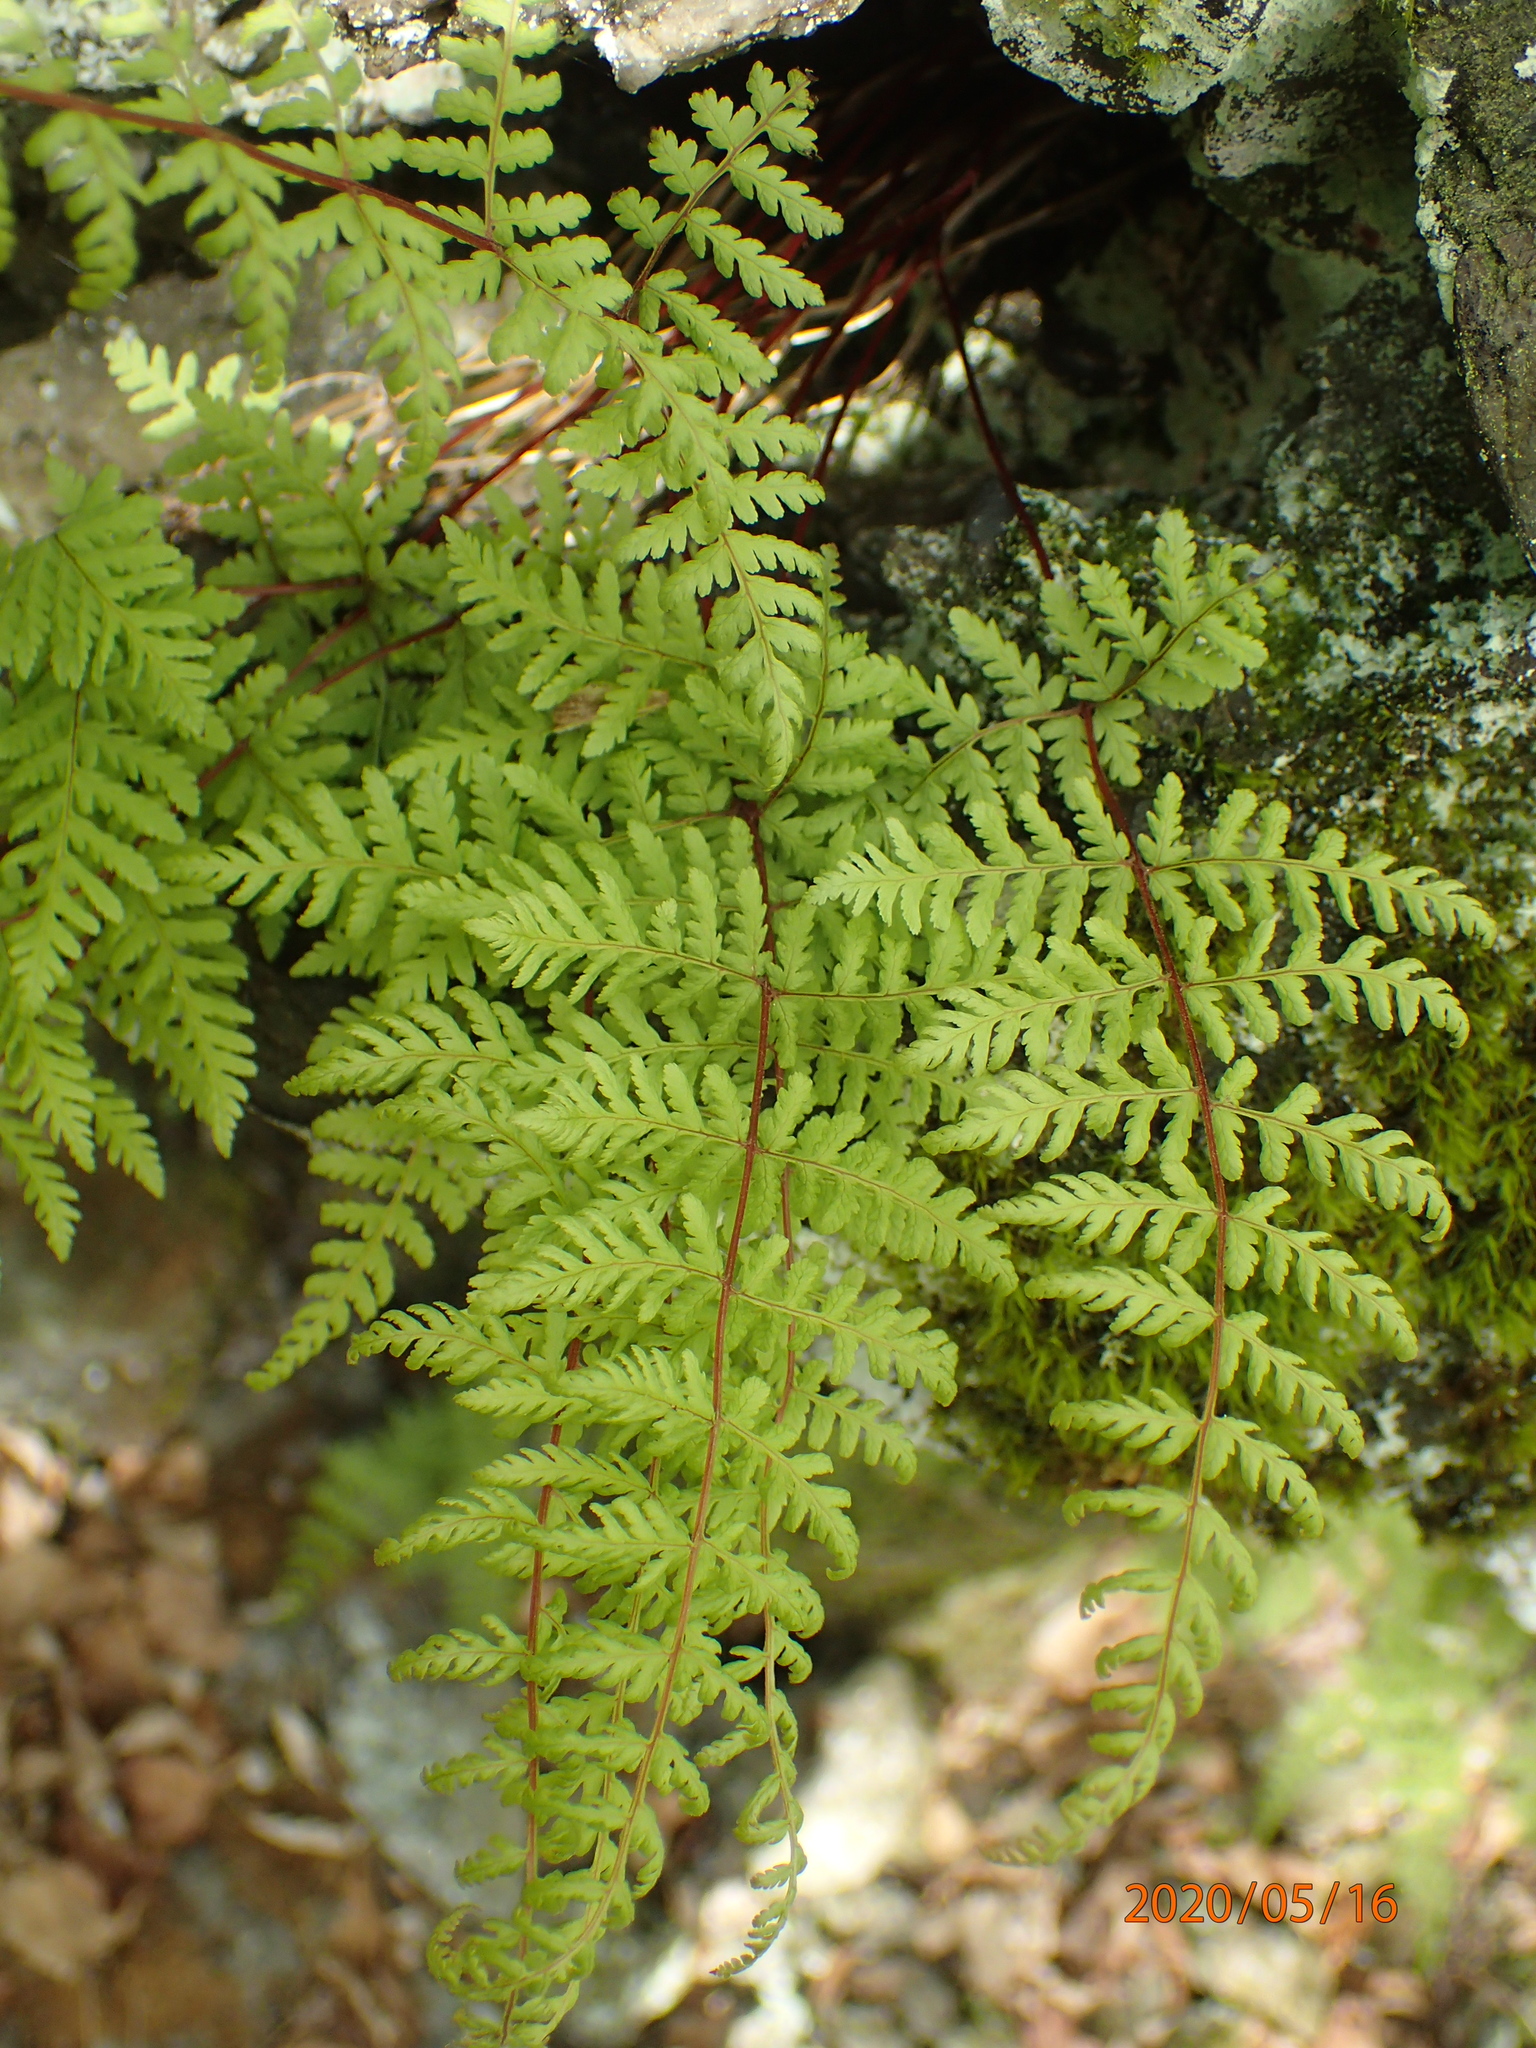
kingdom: Plantae
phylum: Tracheophyta
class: Polypodiopsida
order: Polypodiales
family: Cystopteridaceae
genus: Cystopteris
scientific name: Cystopteris bulbifera
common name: Bulblet bladder fern
